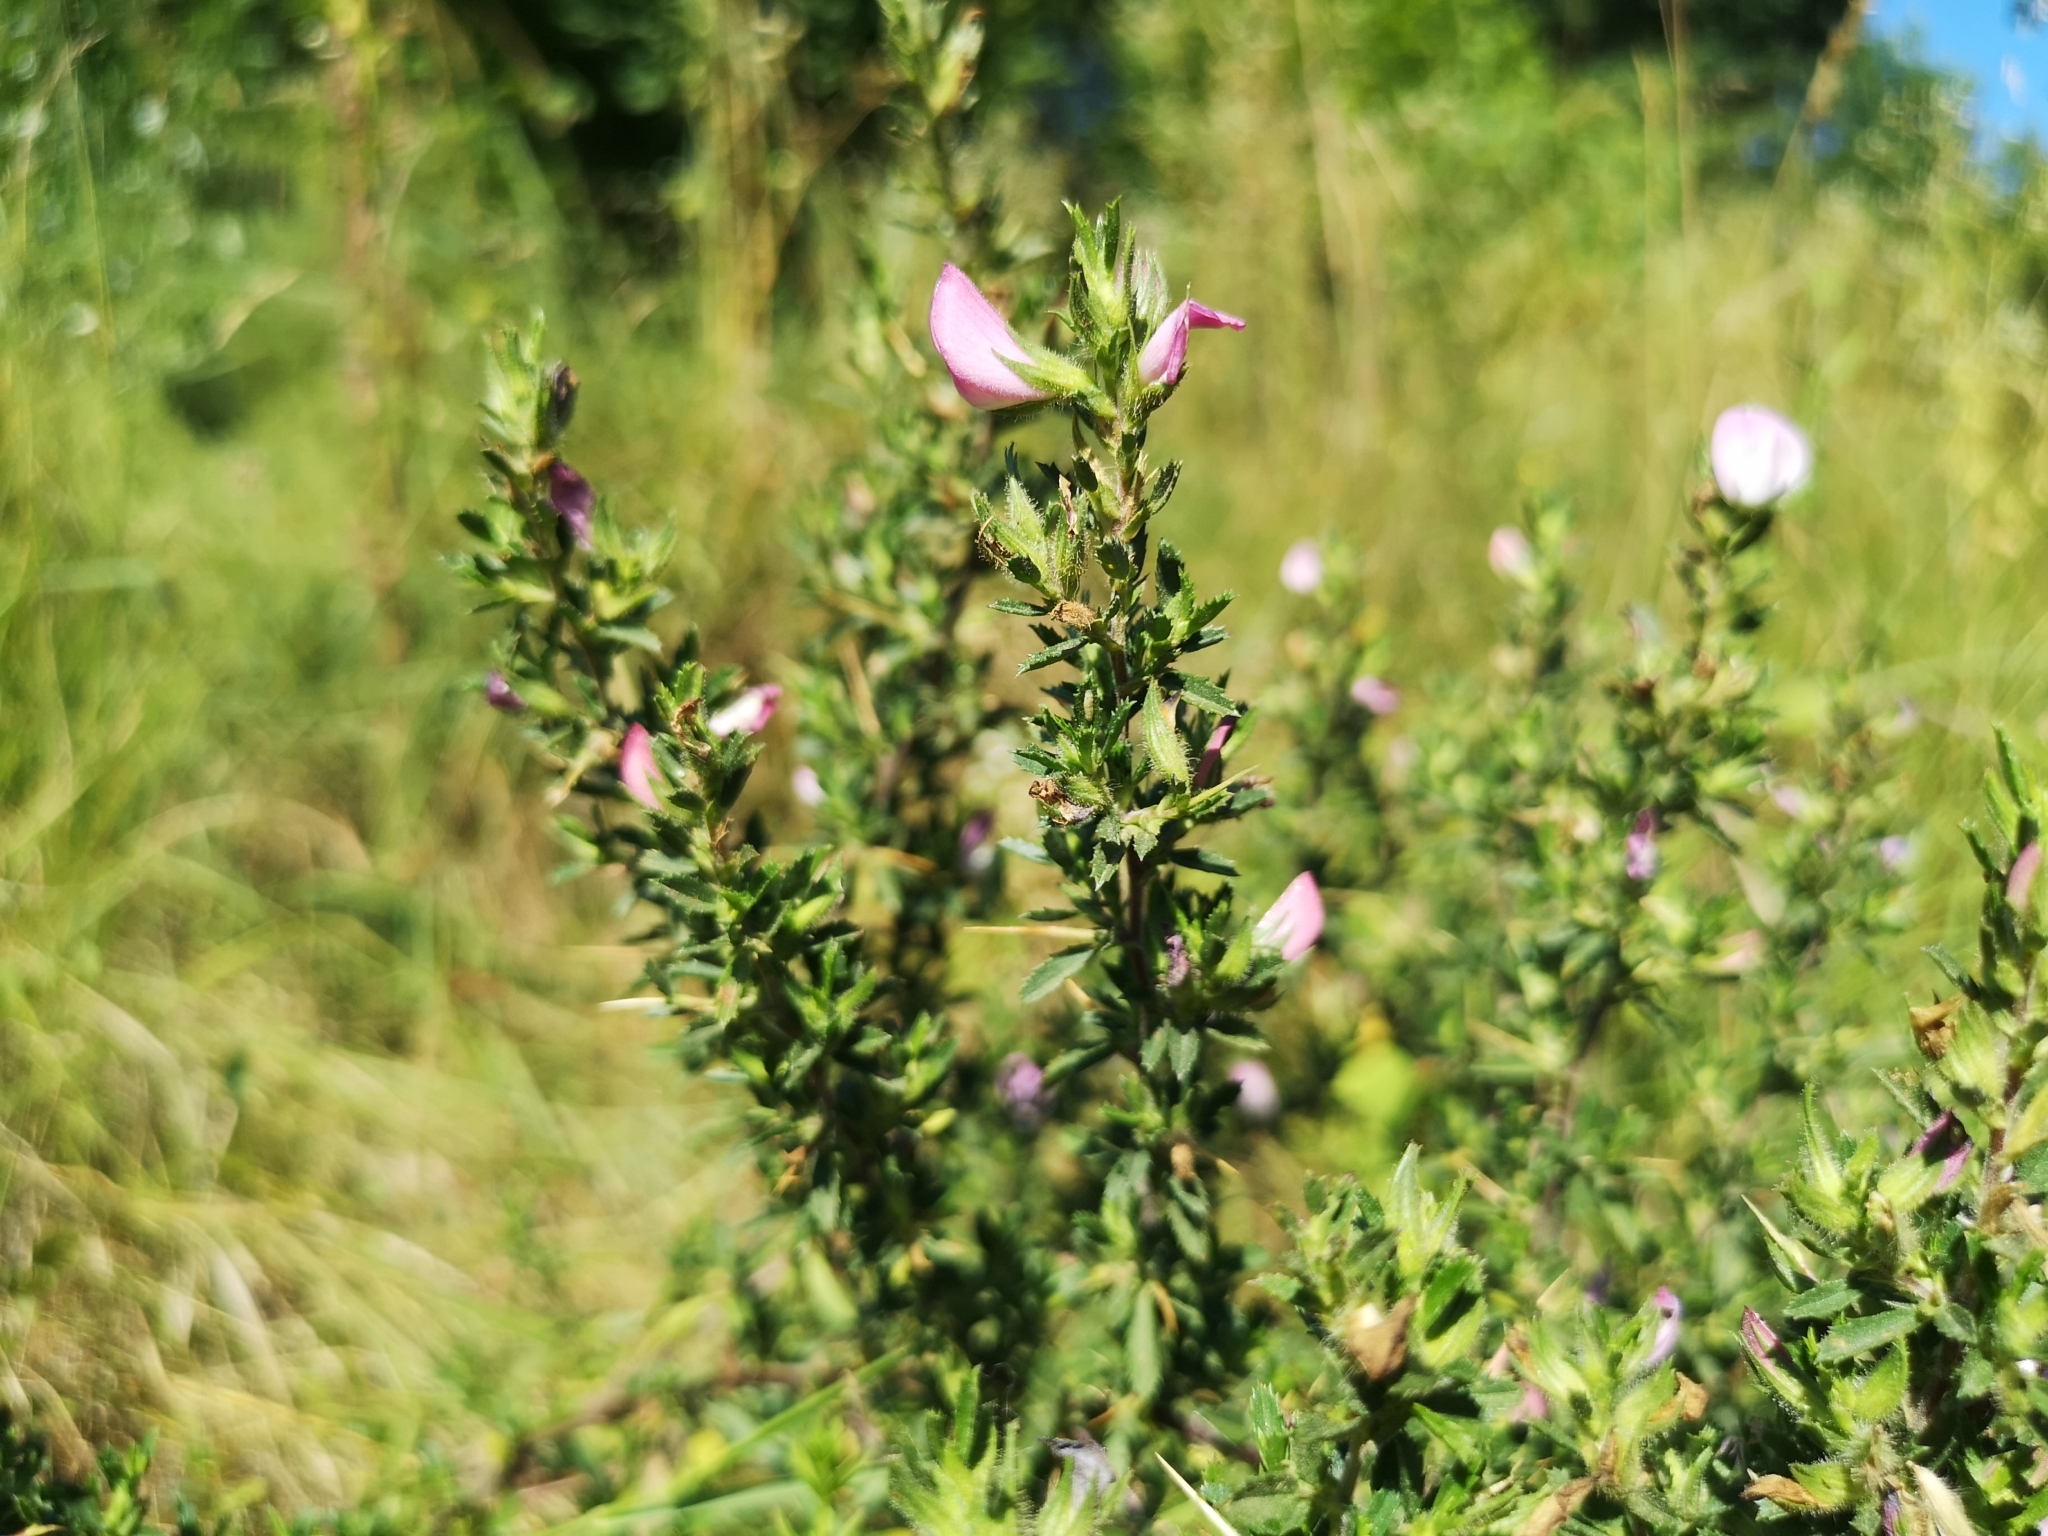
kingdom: Plantae
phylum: Tracheophyta
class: Magnoliopsida
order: Fabales
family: Fabaceae
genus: Ononis
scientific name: Ononis spinosa
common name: Spiny restharrow
